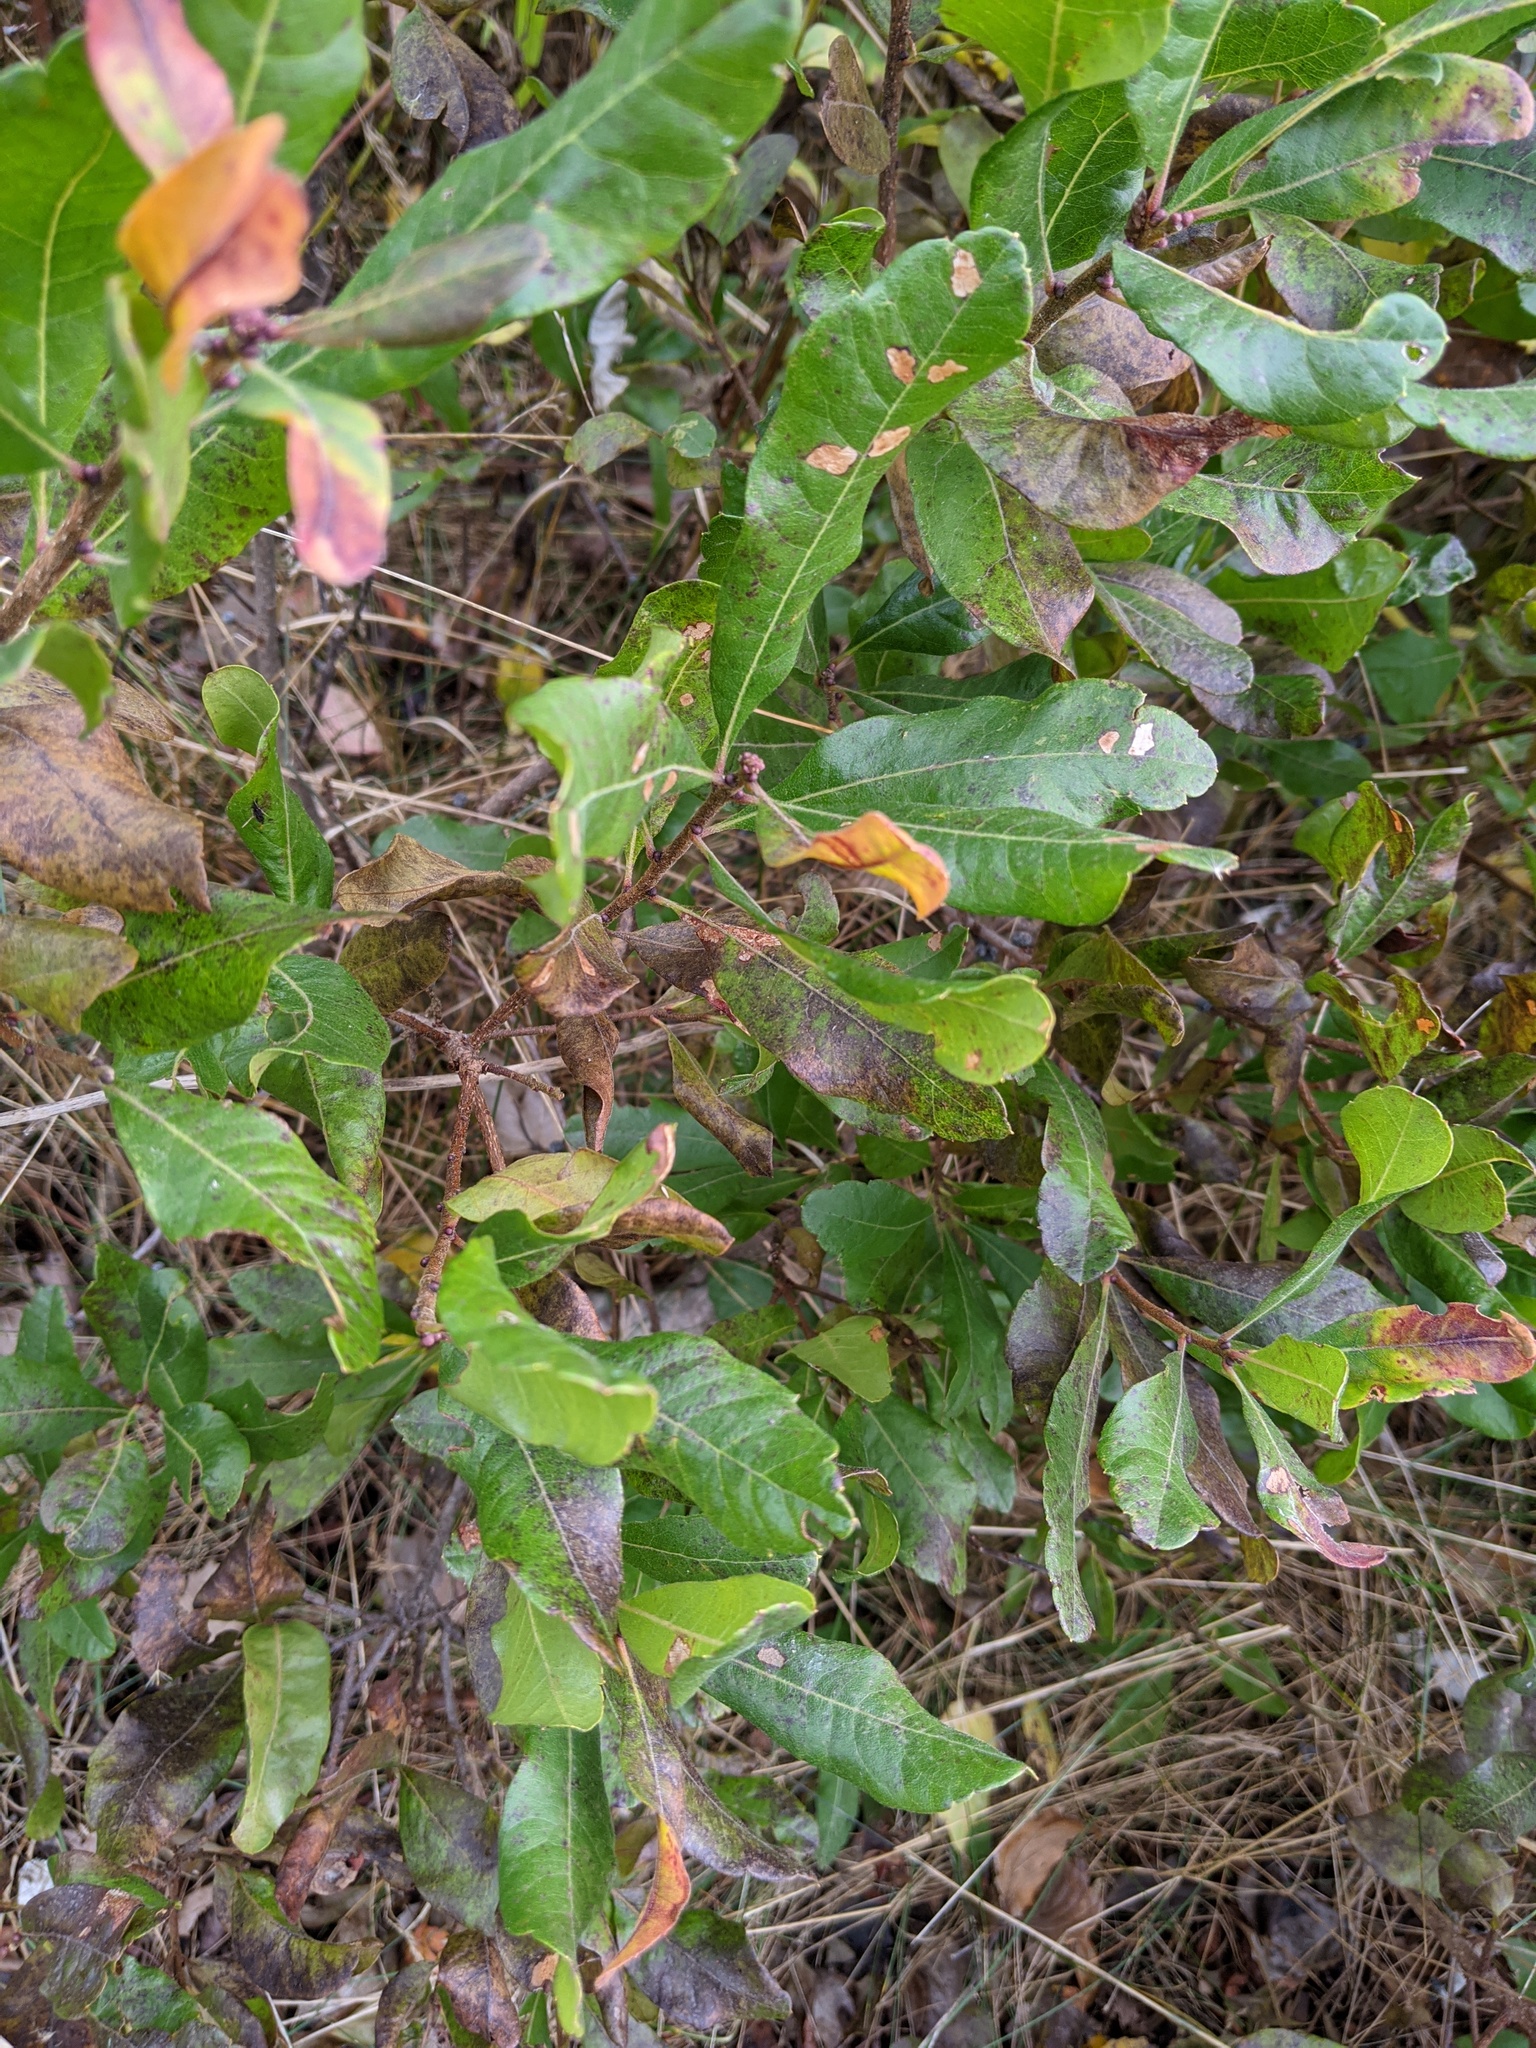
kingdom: Plantae
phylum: Tracheophyta
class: Magnoliopsida
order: Fagales
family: Myricaceae
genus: Morella
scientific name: Morella pensylvanica
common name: Northern bayberry
